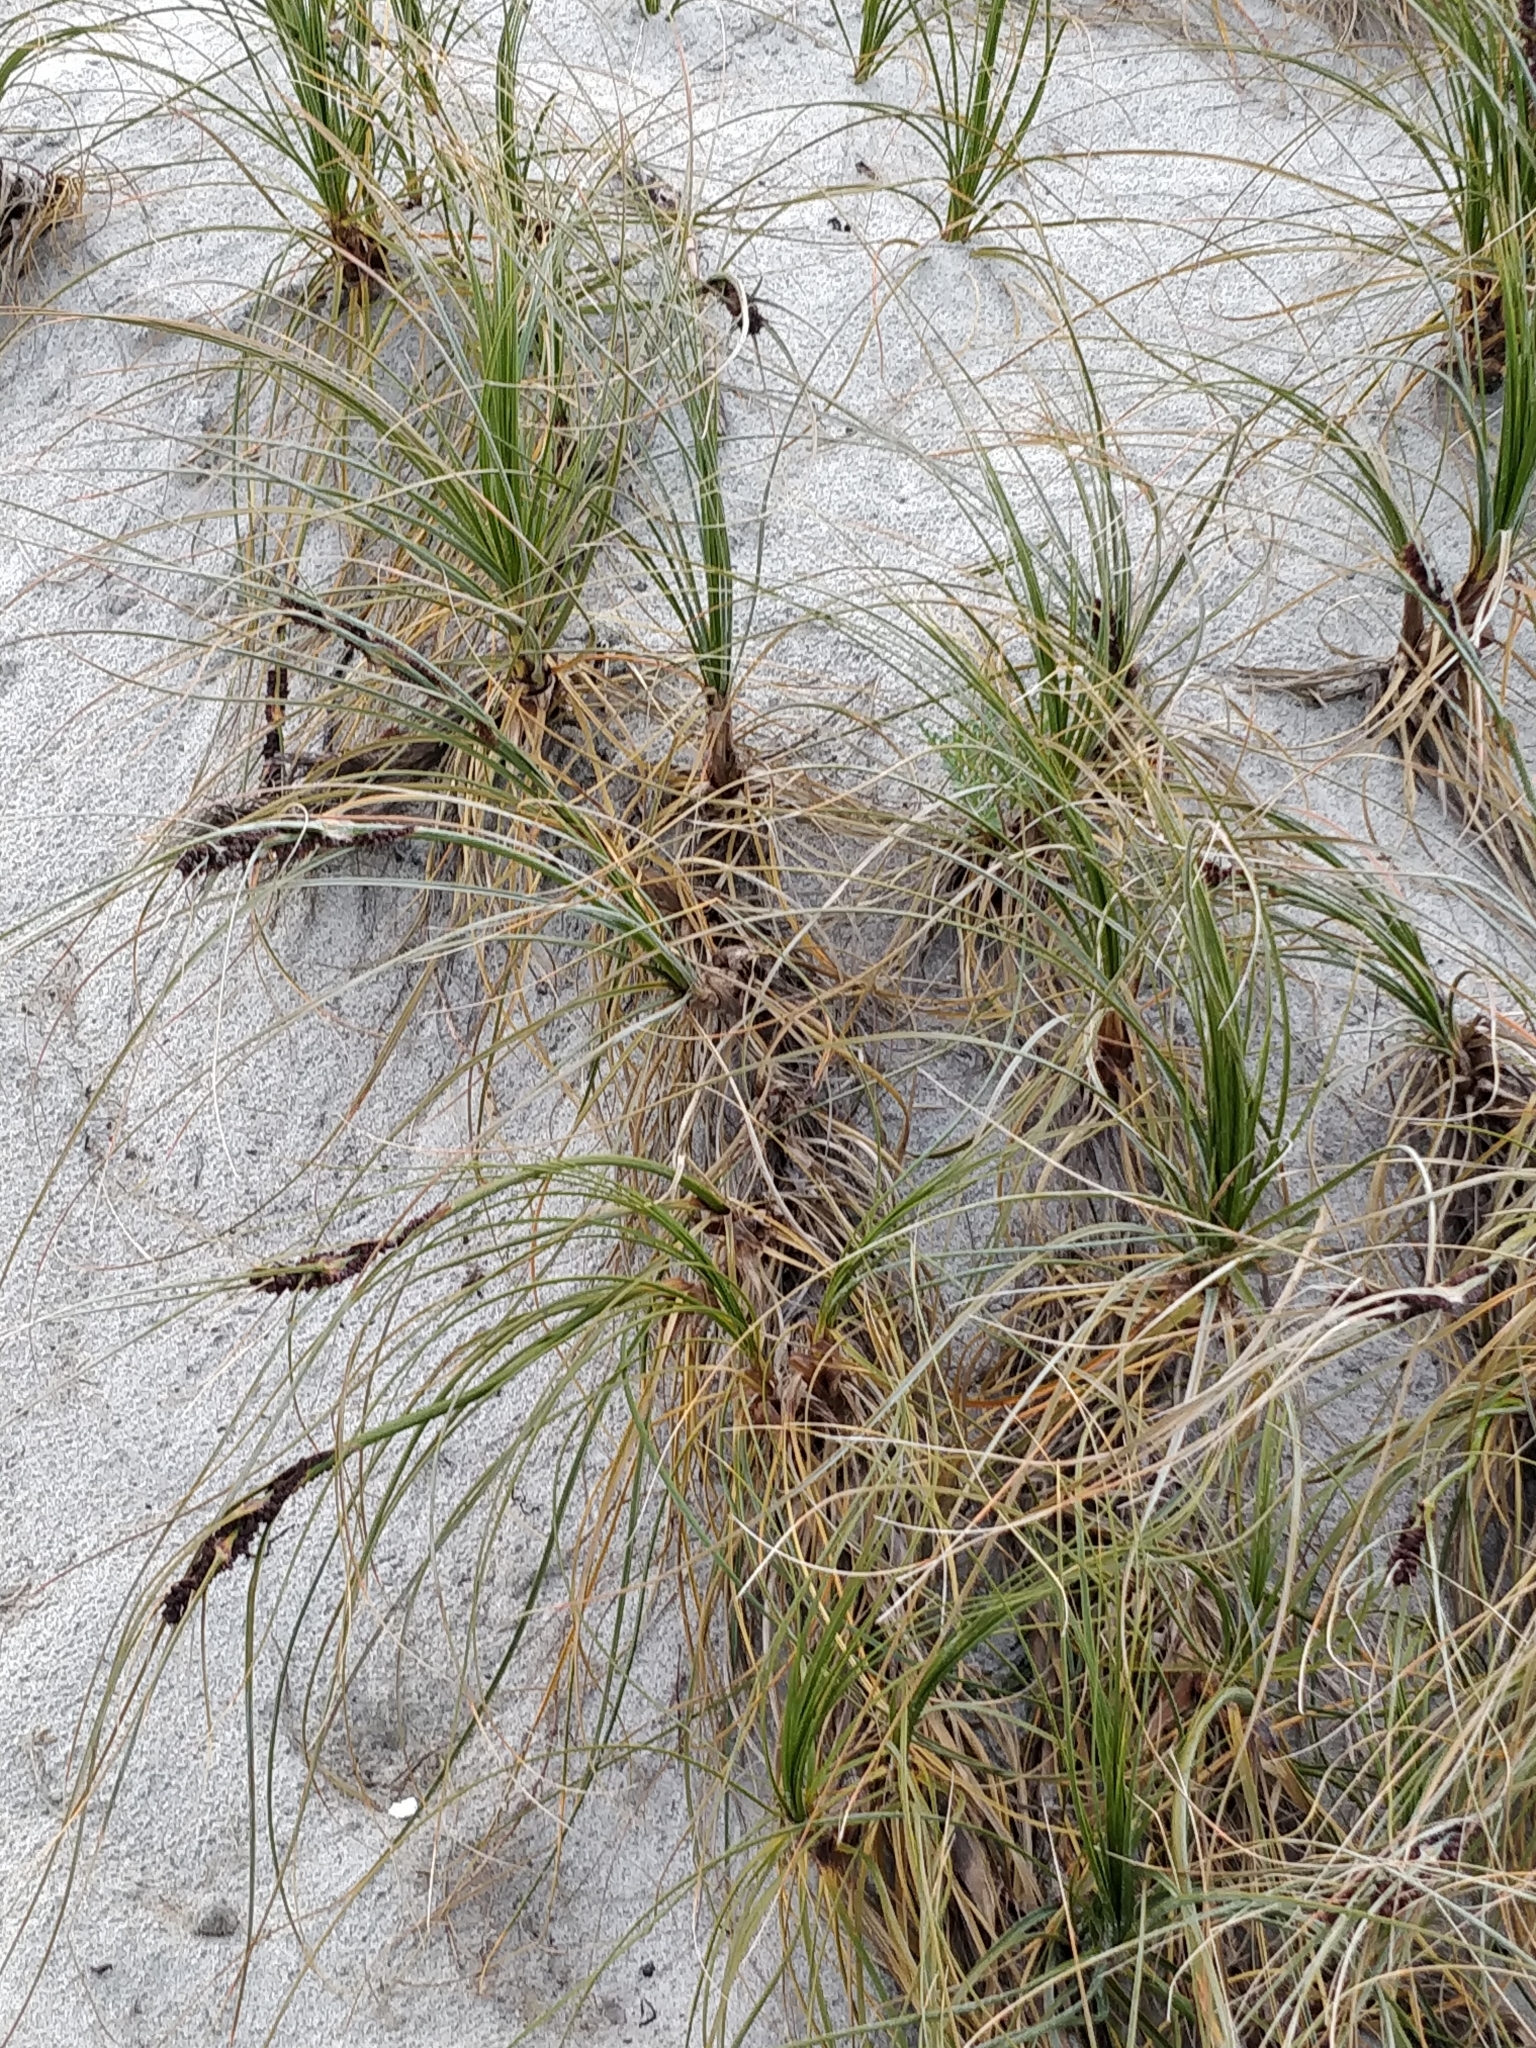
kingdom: Plantae
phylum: Tracheophyta
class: Liliopsida
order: Poales
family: Cyperaceae
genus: Ficinia
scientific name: Ficinia spiralis
